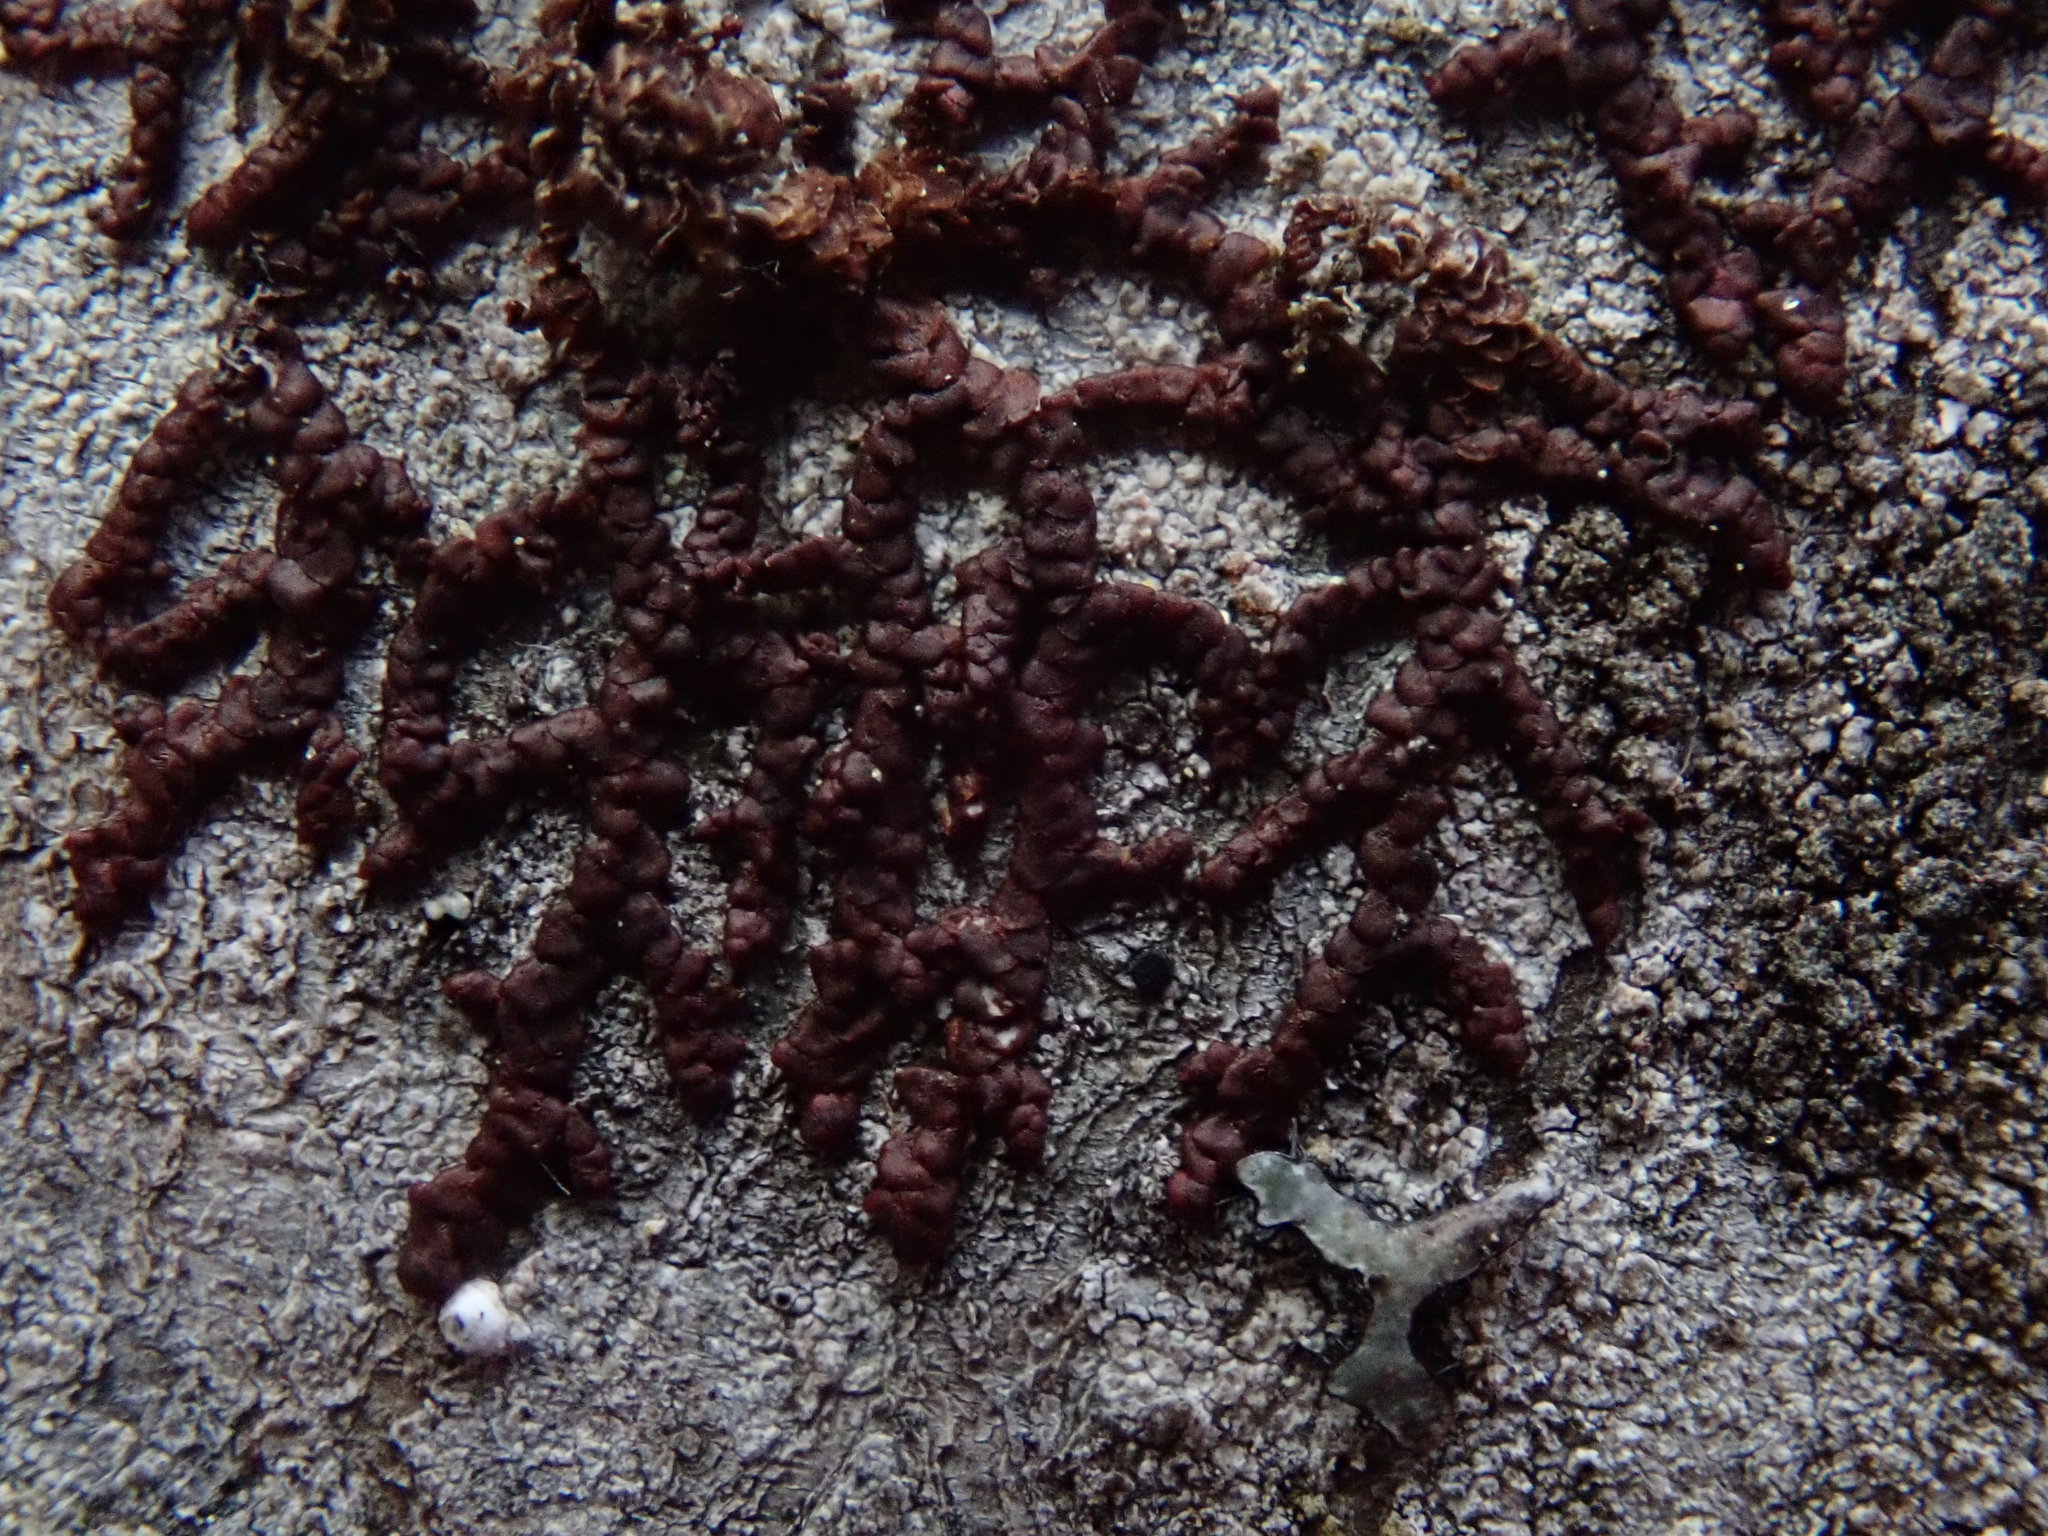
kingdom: Plantae
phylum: Marchantiophyta
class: Jungermanniopsida
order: Porellales
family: Frullaniaceae
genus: Frullania
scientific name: Frullania
